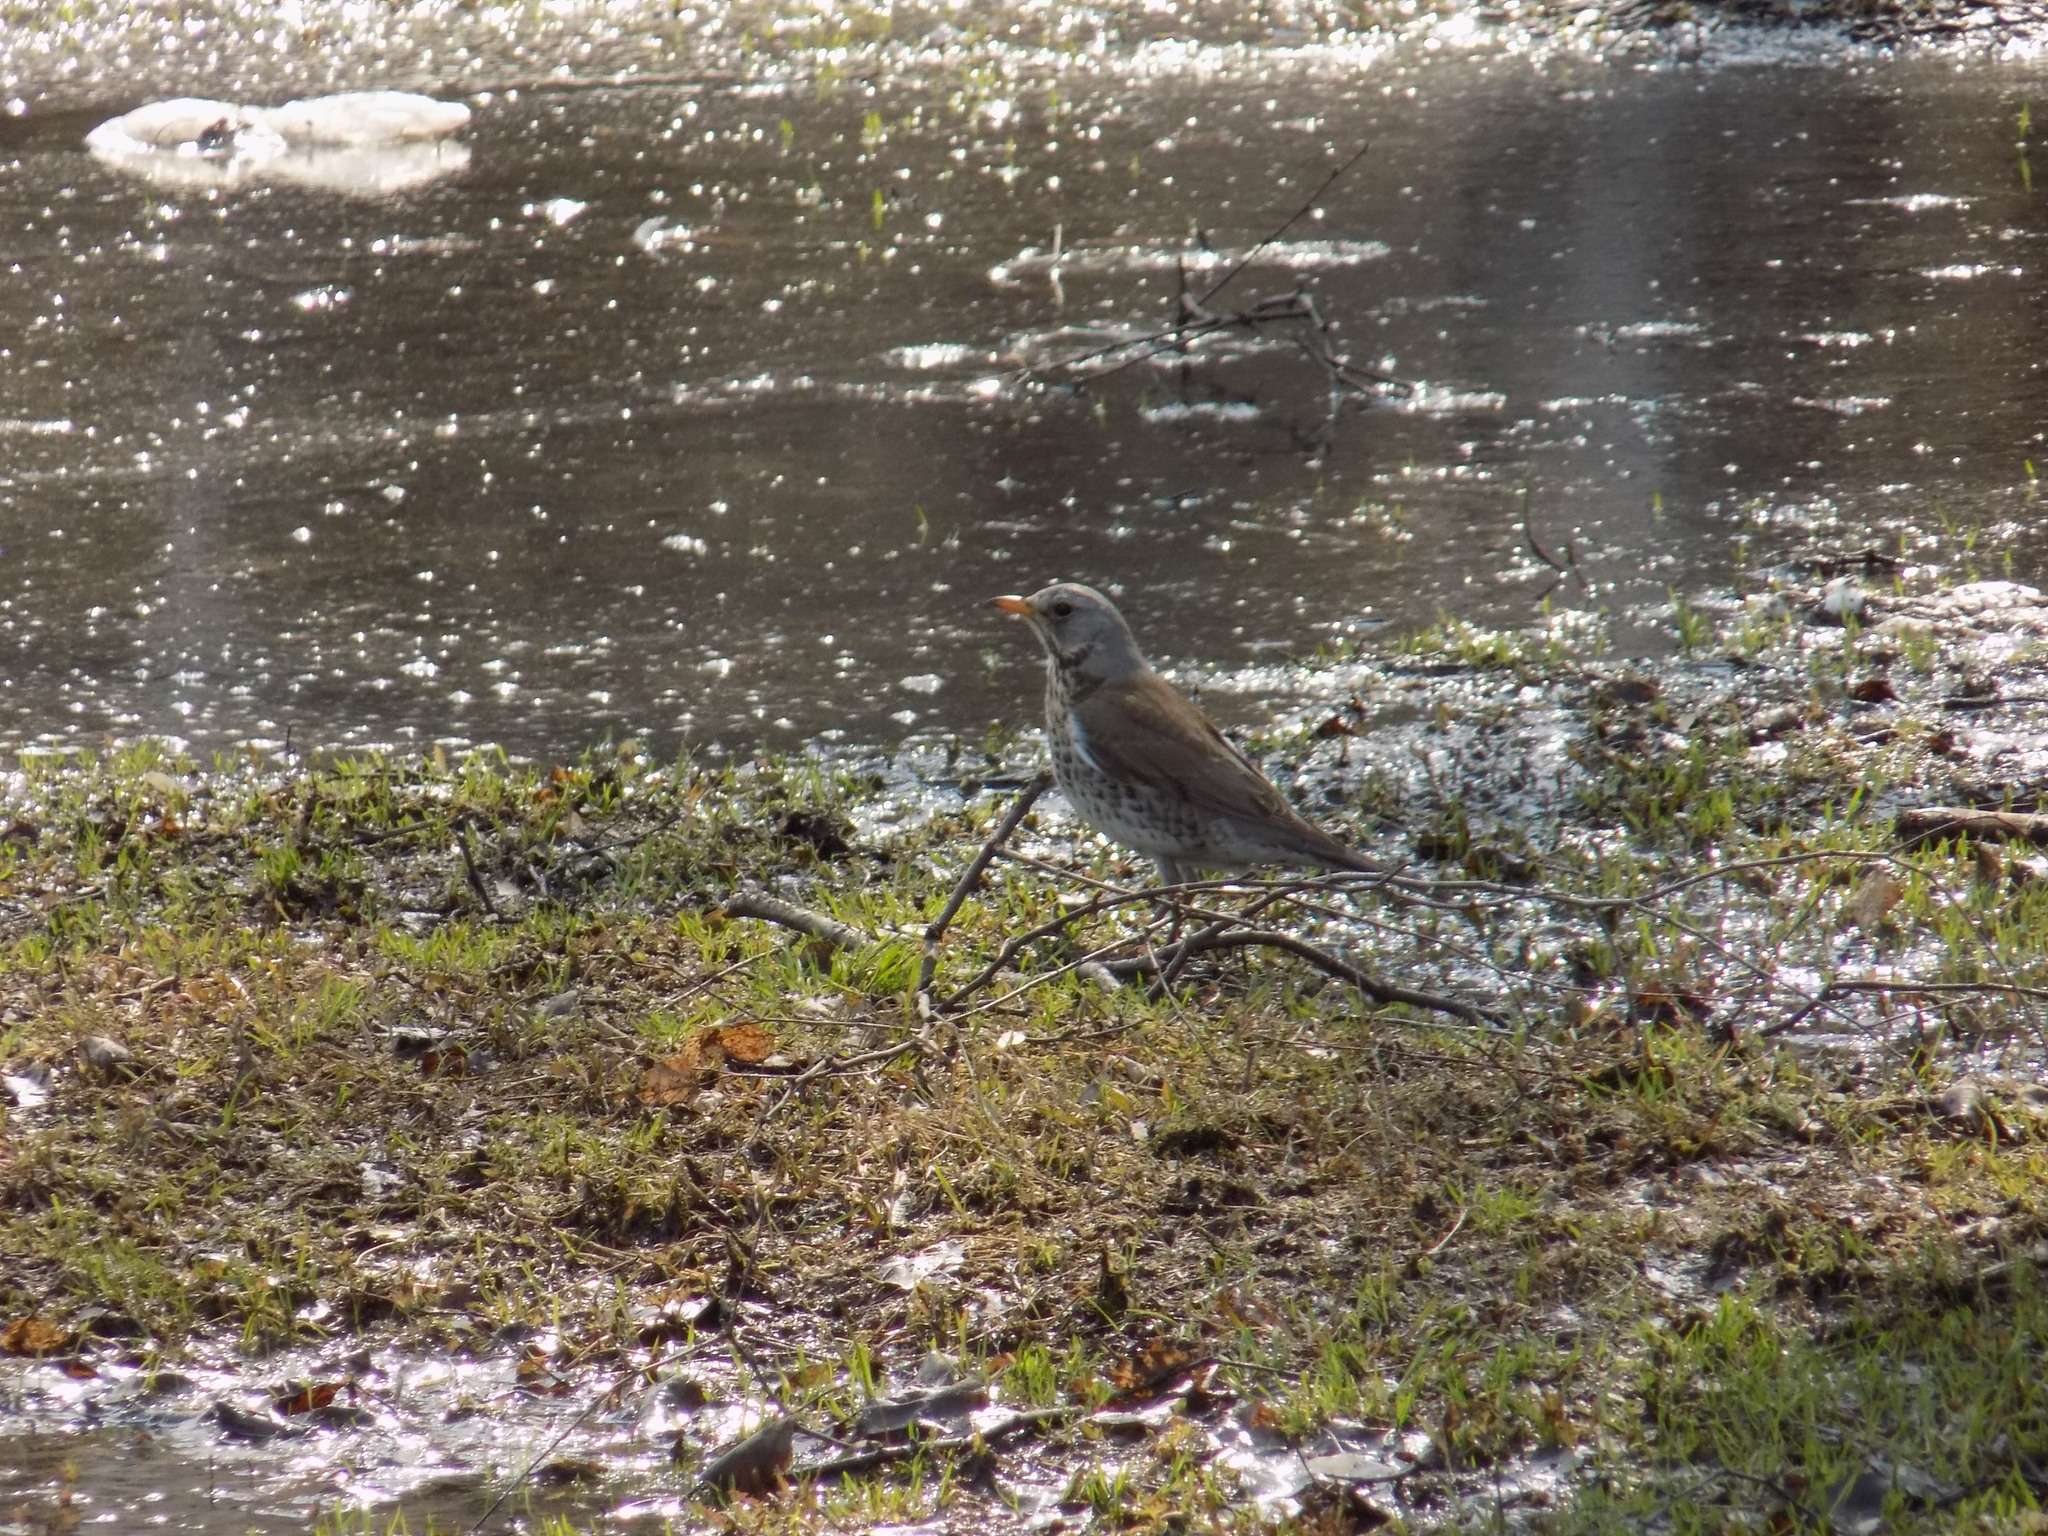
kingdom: Animalia
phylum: Chordata
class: Aves
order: Passeriformes
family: Turdidae
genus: Turdus
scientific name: Turdus pilaris
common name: Fieldfare
